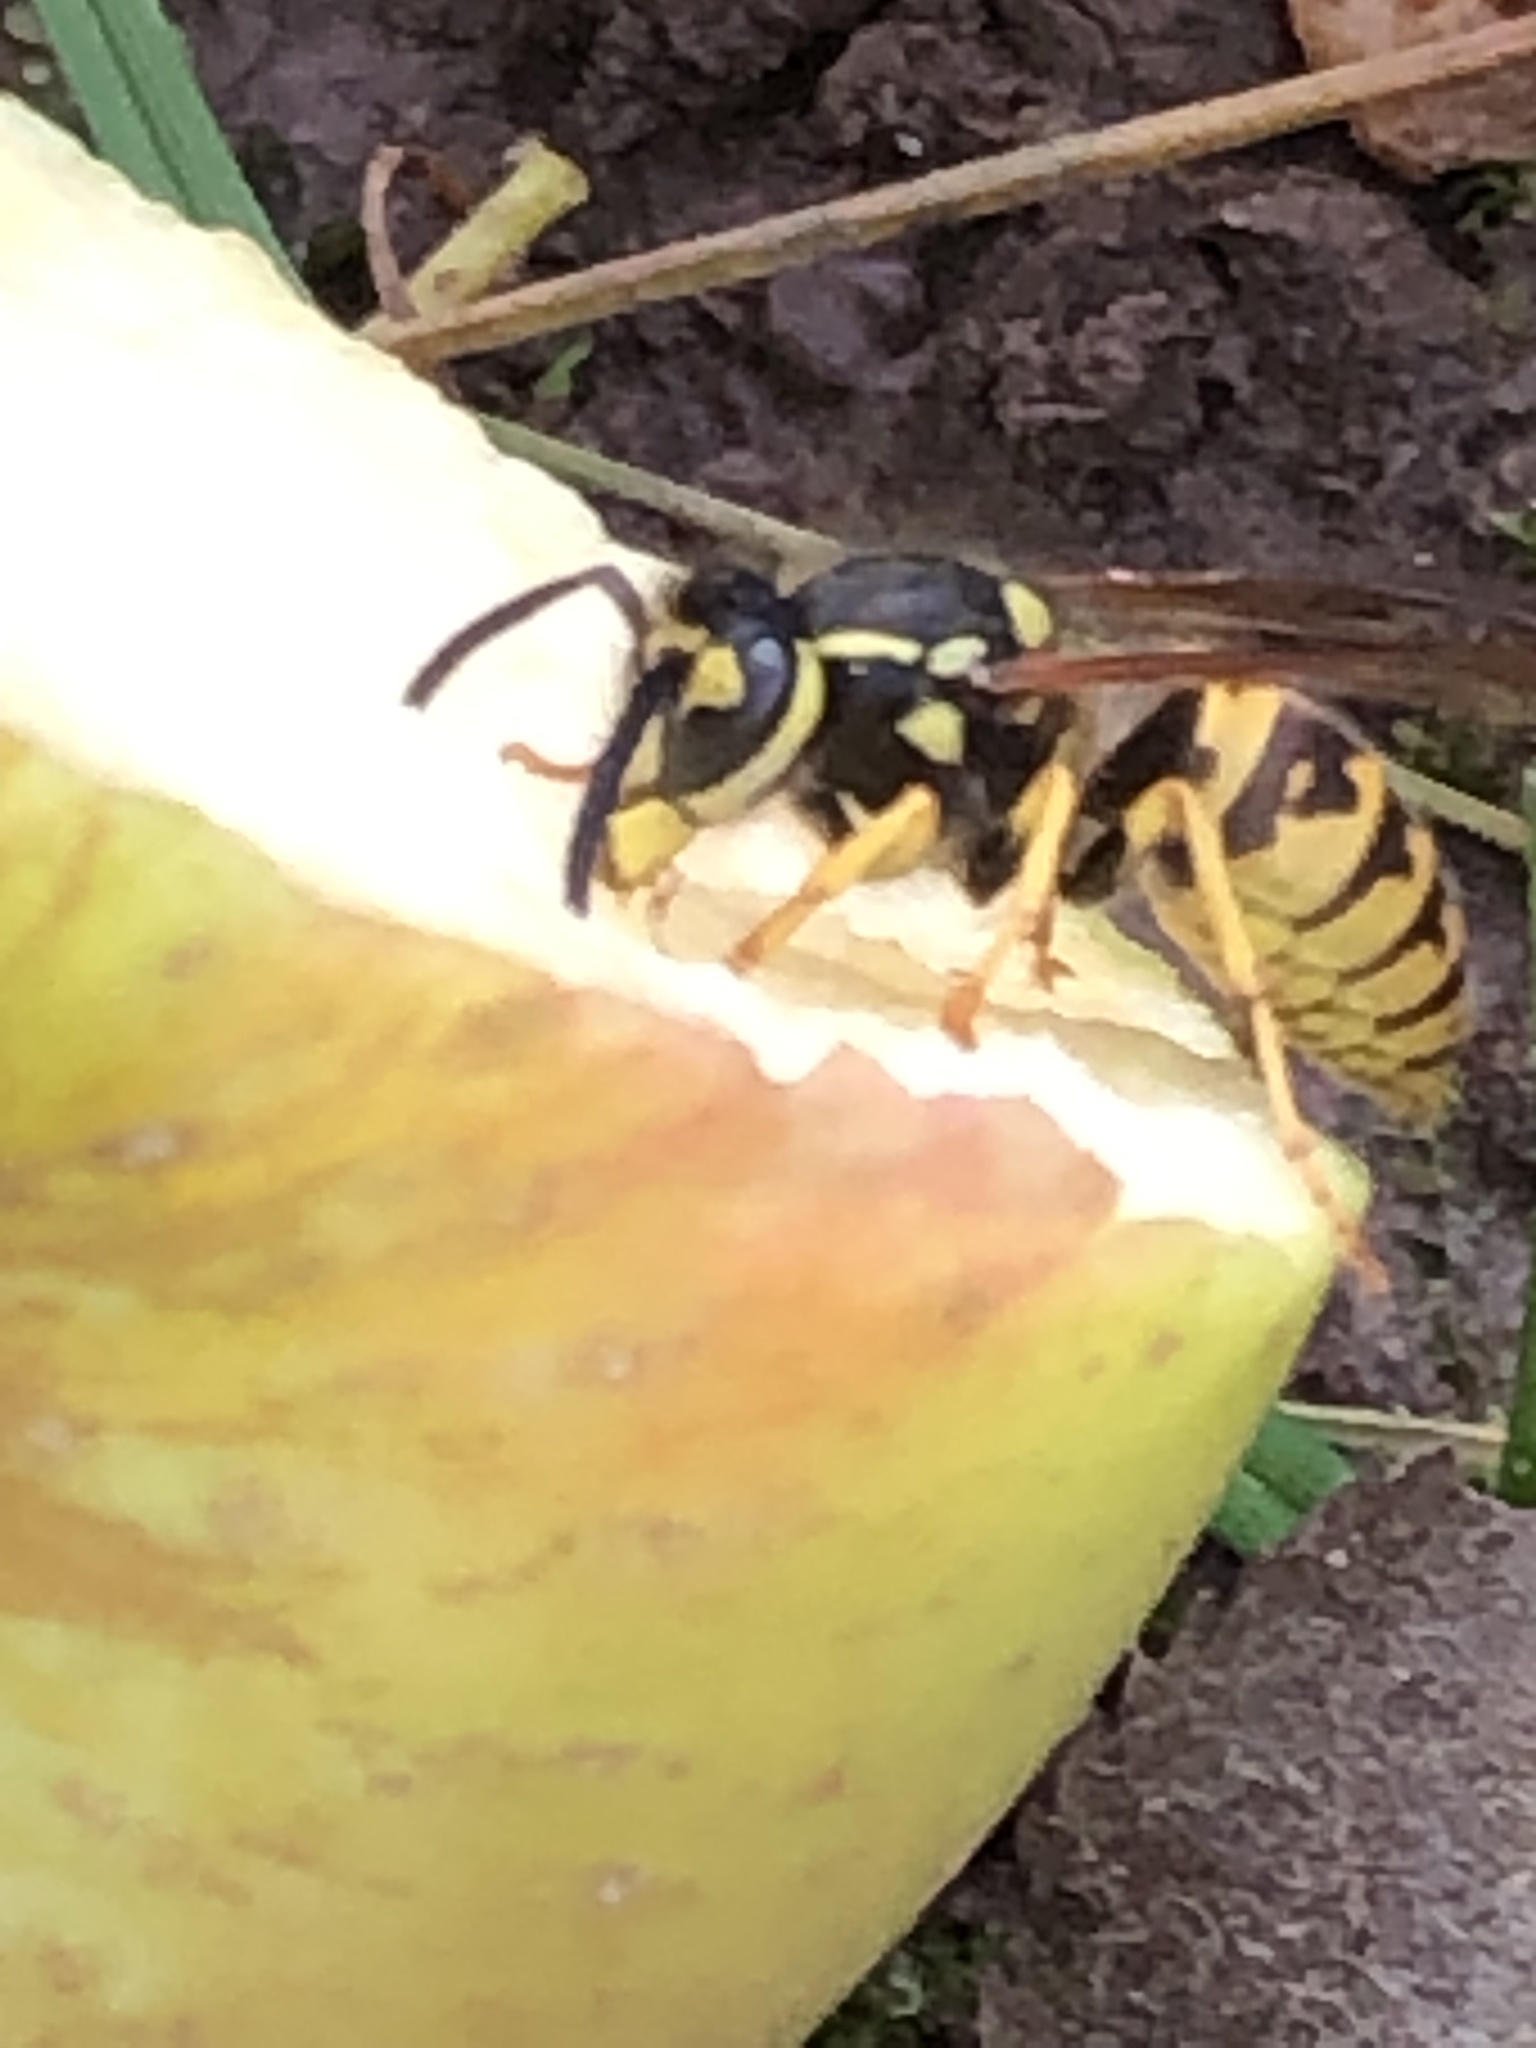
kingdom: Animalia
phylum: Arthropoda
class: Insecta
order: Hymenoptera
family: Vespidae
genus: Vespula
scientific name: Vespula germanica
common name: German wasp
